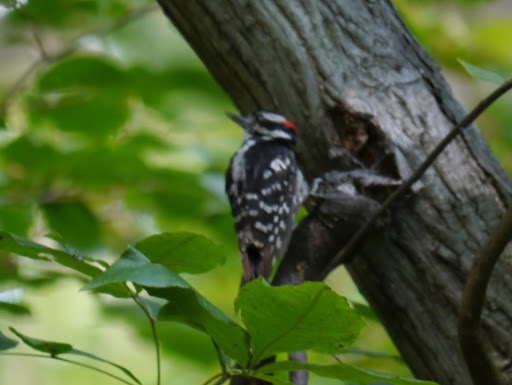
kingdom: Animalia
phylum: Chordata
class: Aves
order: Piciformes
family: Picidae
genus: Dryobates
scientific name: Dryobates pubescens
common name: Downy woodpecker
